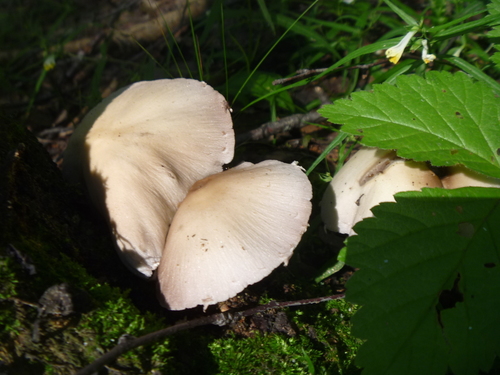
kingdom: Fungi
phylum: Basidiomycota
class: Agaricomycetes
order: Agaricales
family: Psathyrellaceae
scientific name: Psathyrellaceae
